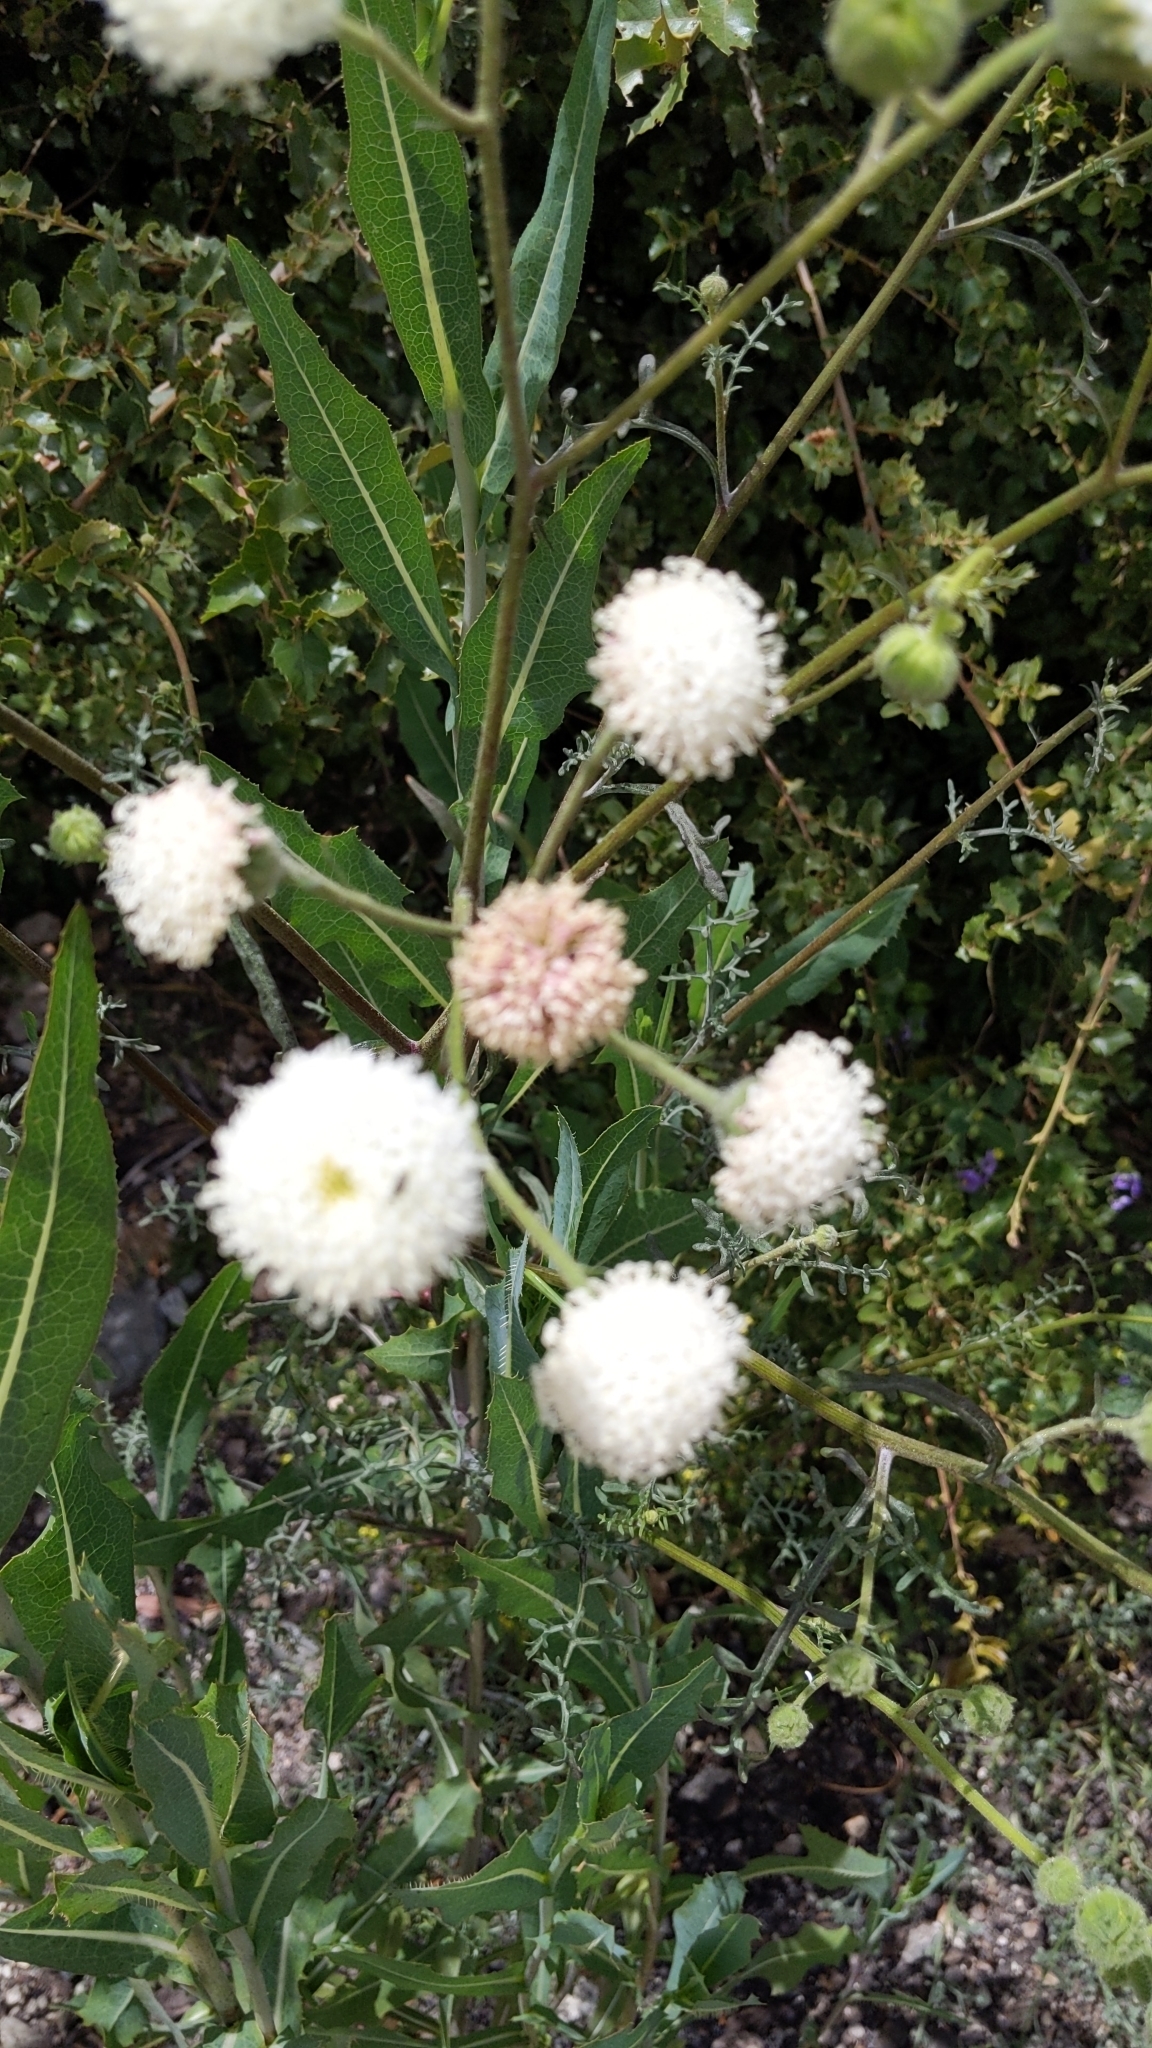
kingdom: Plantae
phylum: Tracheophyta
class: Magnoliopsida
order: Asterales
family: Asteraceae
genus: Chaenactis
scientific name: Chaenactis artemisiifolia
